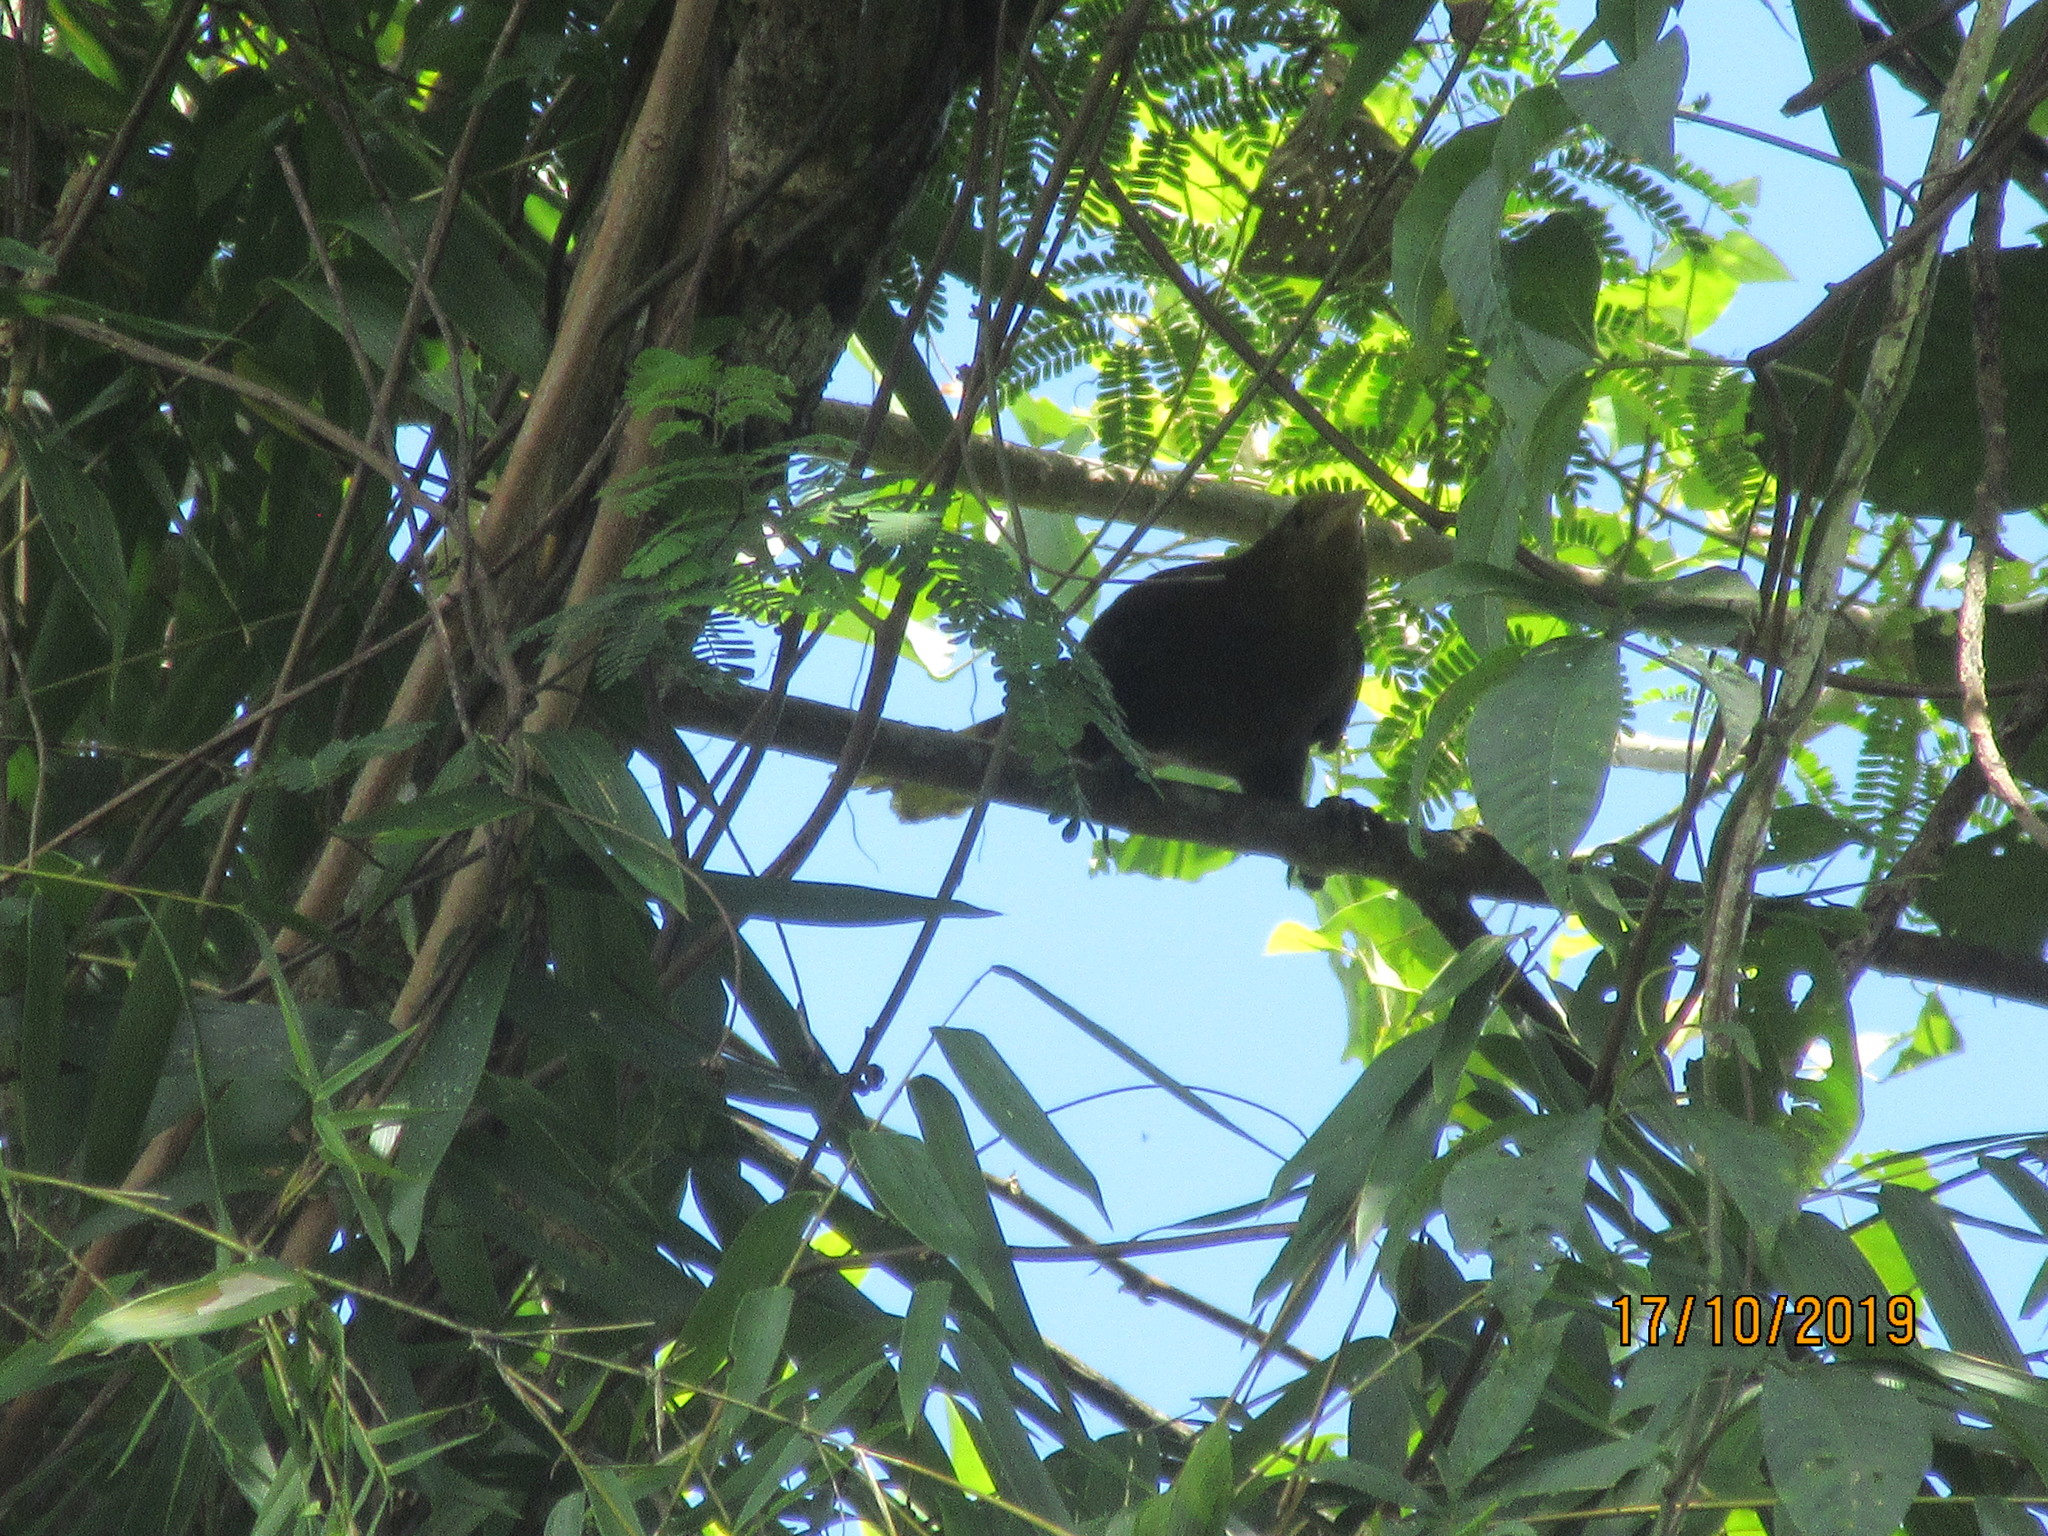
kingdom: Animalia
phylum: Chordata
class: Aves
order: Passeriformes
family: Icteridae
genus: Psarocolius
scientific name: Psarocolius angustifrons
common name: Russet-backed oropendola
